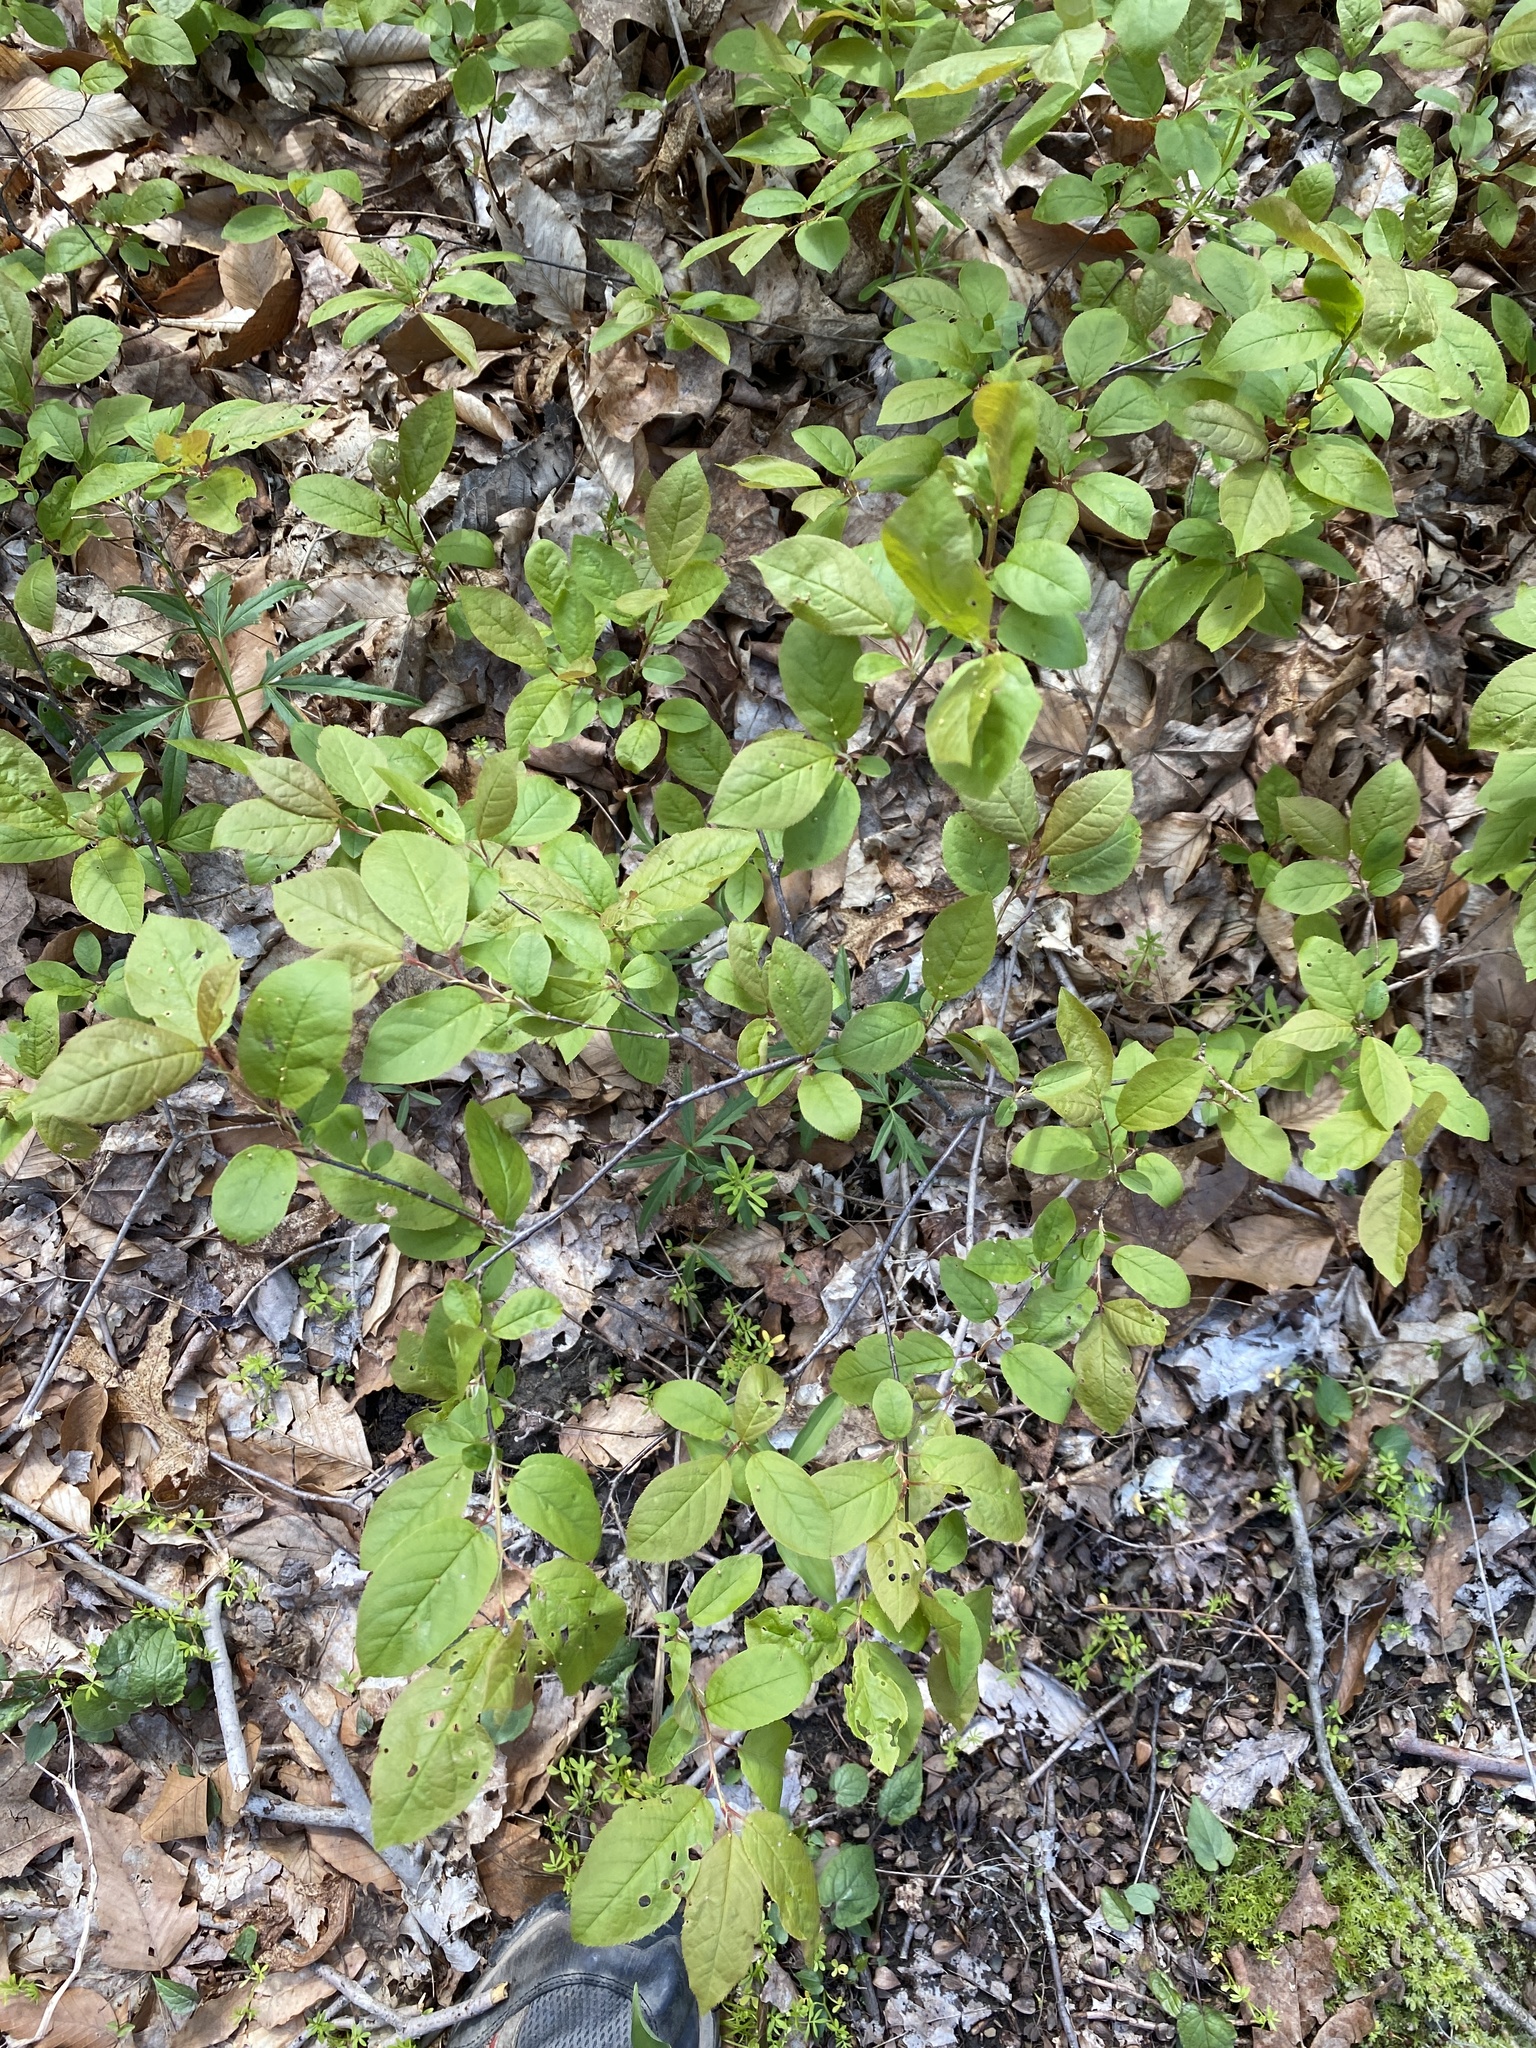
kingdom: Plantae
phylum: Tracheophyta
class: Magnoliopsida
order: Rosales
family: Rosaceae
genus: Prunus
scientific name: Prunus virginiana
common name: Chokecherry
